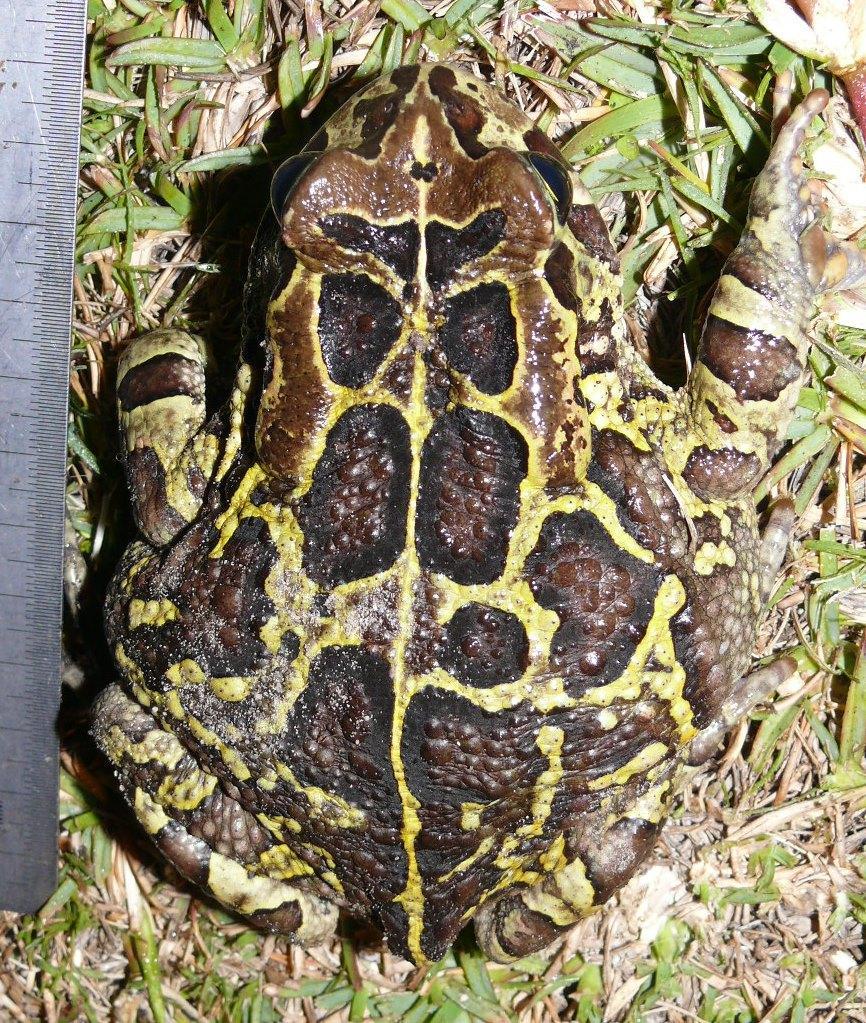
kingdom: Animalia
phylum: Chordata
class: Amphibia
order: Anura
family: Bufonidae
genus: Sclerophrys
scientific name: Sclerophrys pantherina
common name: Panther toad
